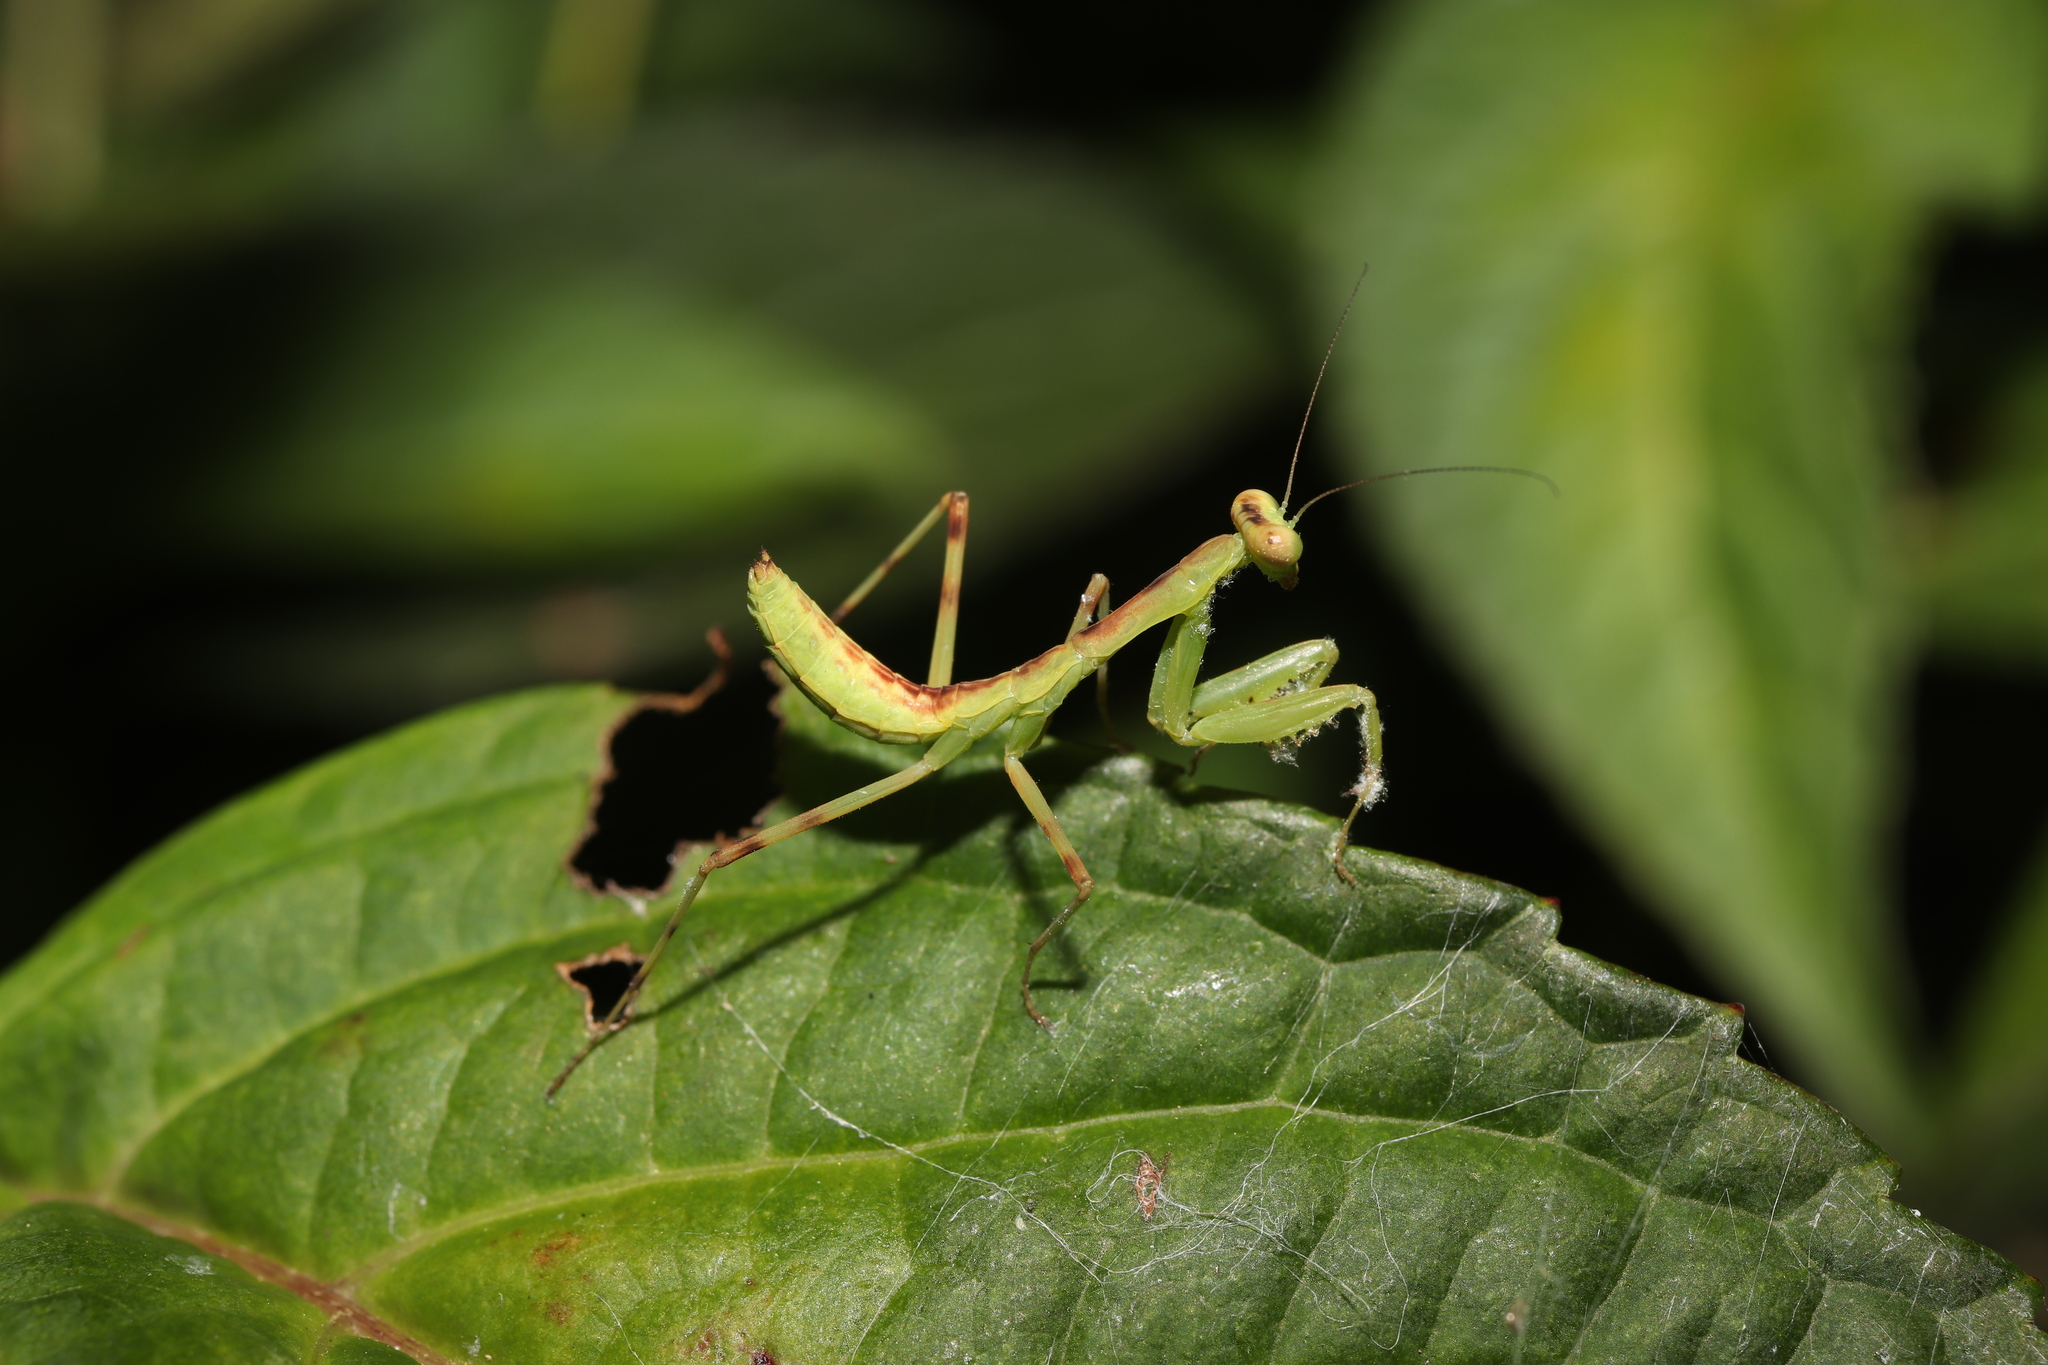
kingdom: Animalia
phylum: Arthropoda
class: Insecta
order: Mantodea
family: Mantidae
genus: Hierodula
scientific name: Hierodula patellifera
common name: Asian mantis
